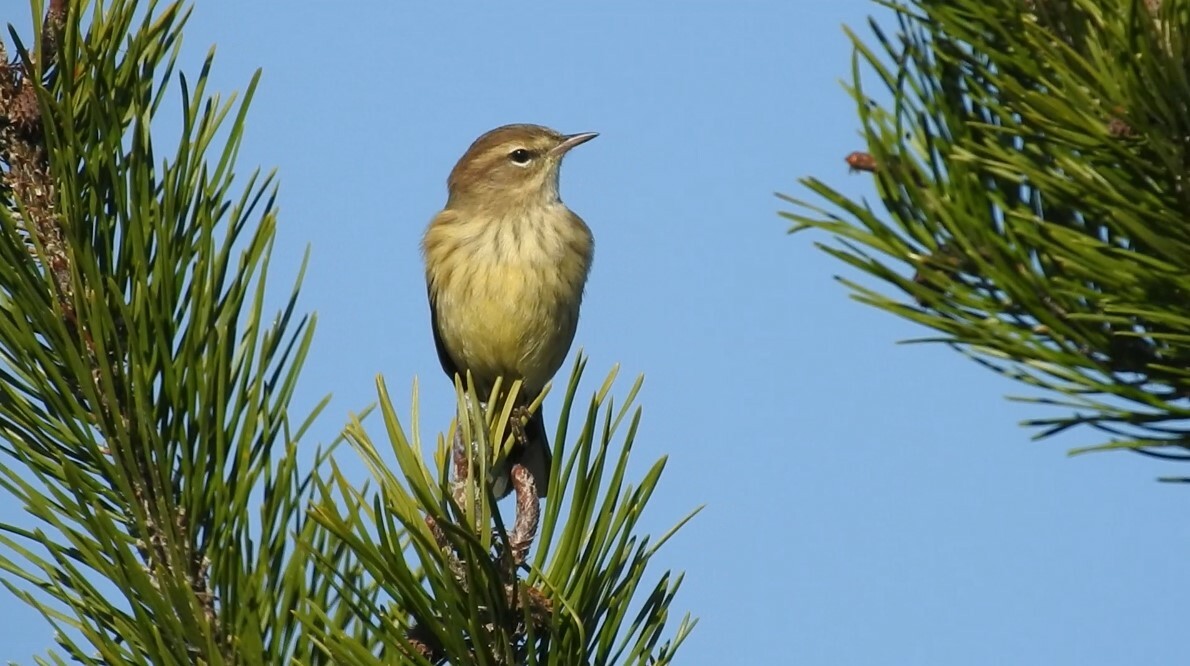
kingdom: Animalia
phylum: Chordata
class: Aves
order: Passeriformes
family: Parulidae
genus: Setophaga
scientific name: Setophaga palmarum
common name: Palm warbler
